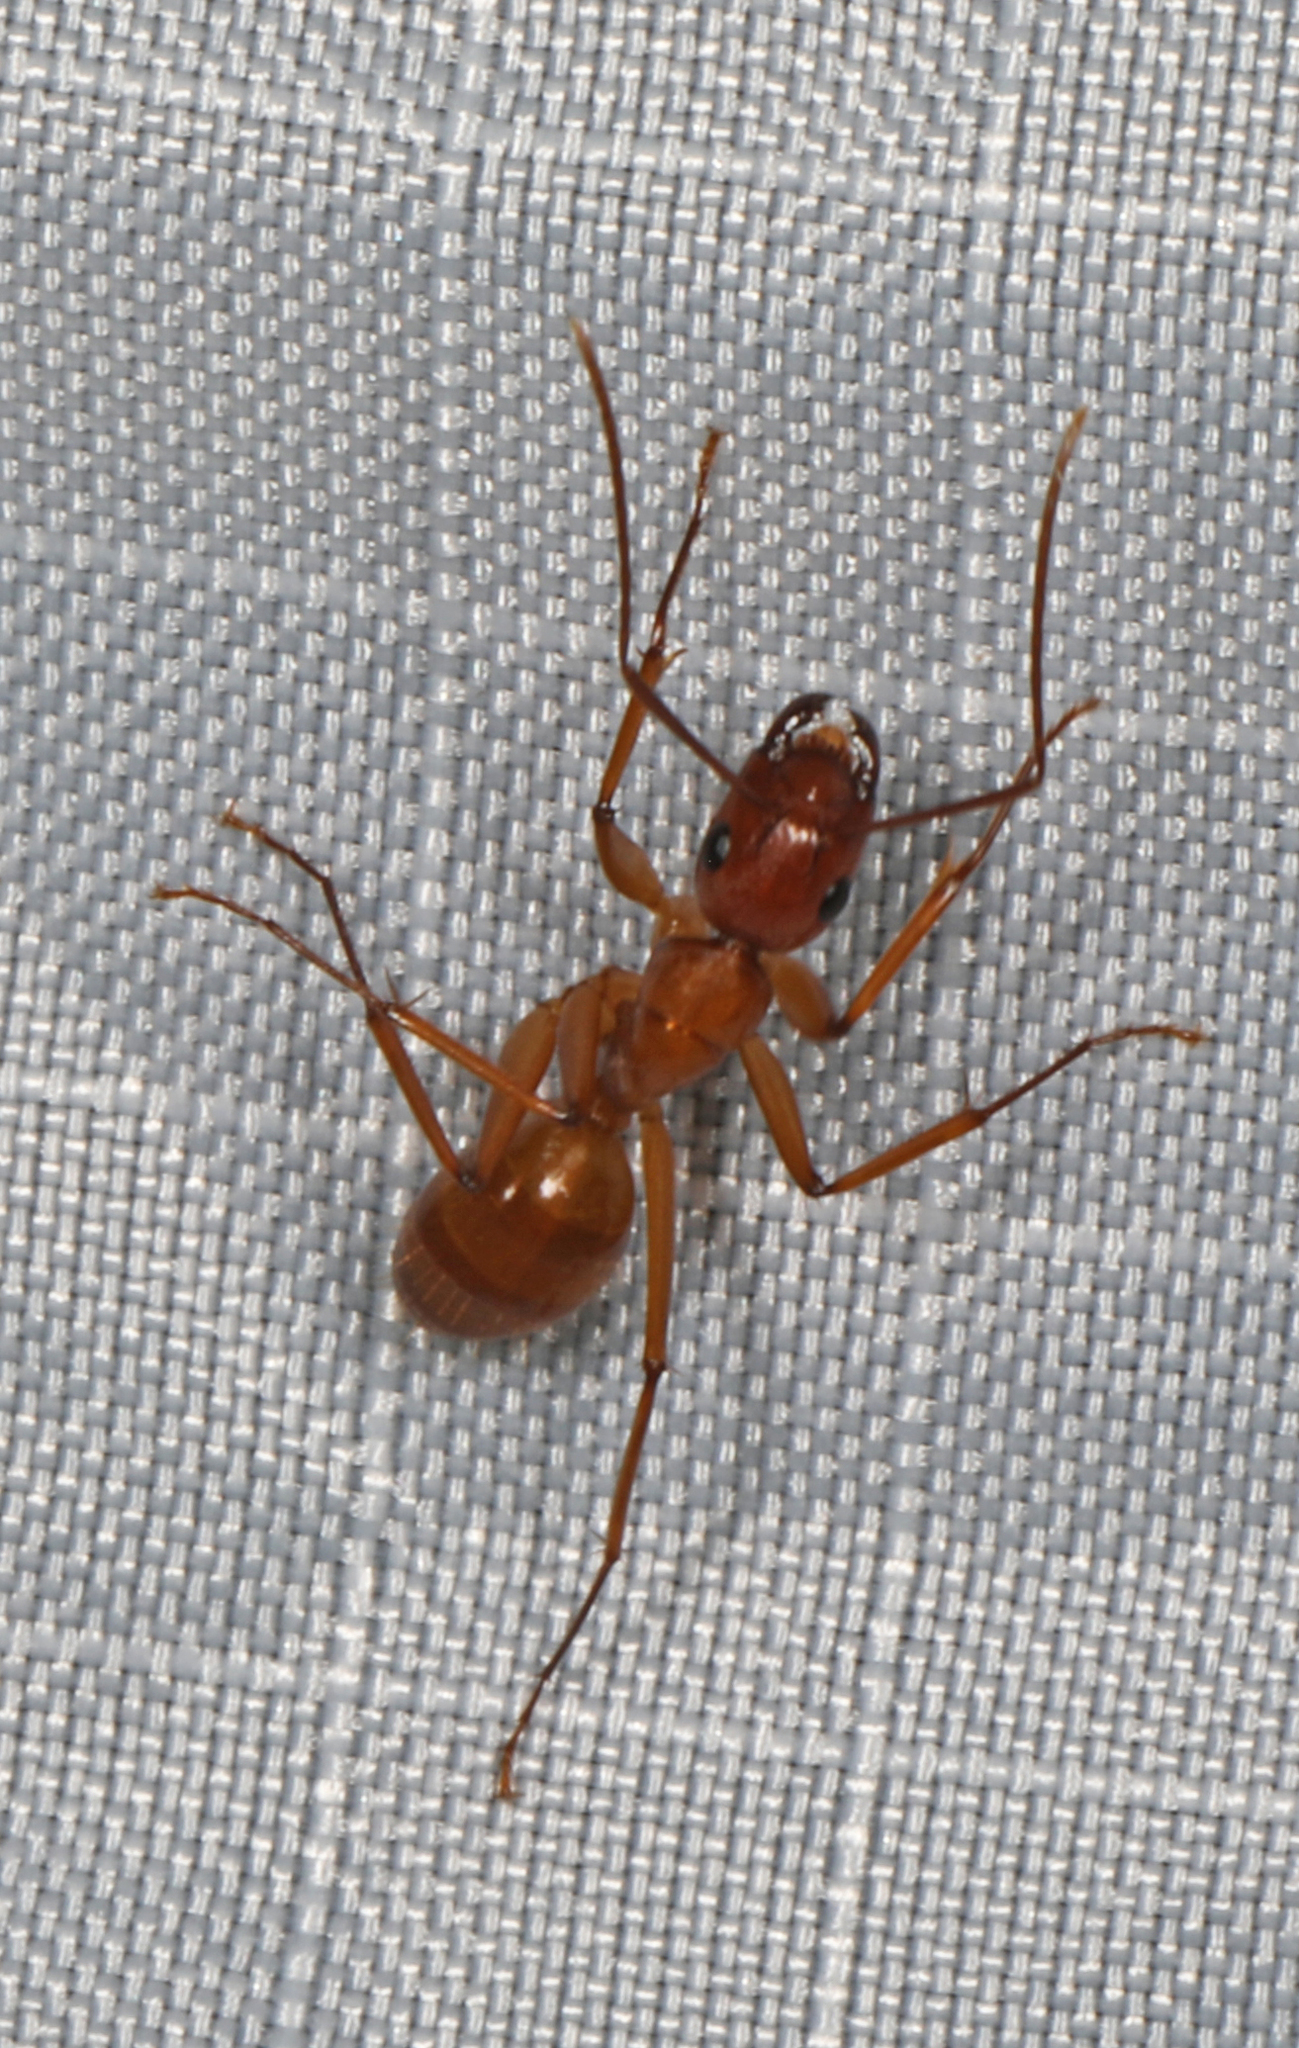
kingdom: Animalia
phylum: Arthropoda
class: Insecta
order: Hymenoptera
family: Formicidae
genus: Camponotus
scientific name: Camponotus castaneus
